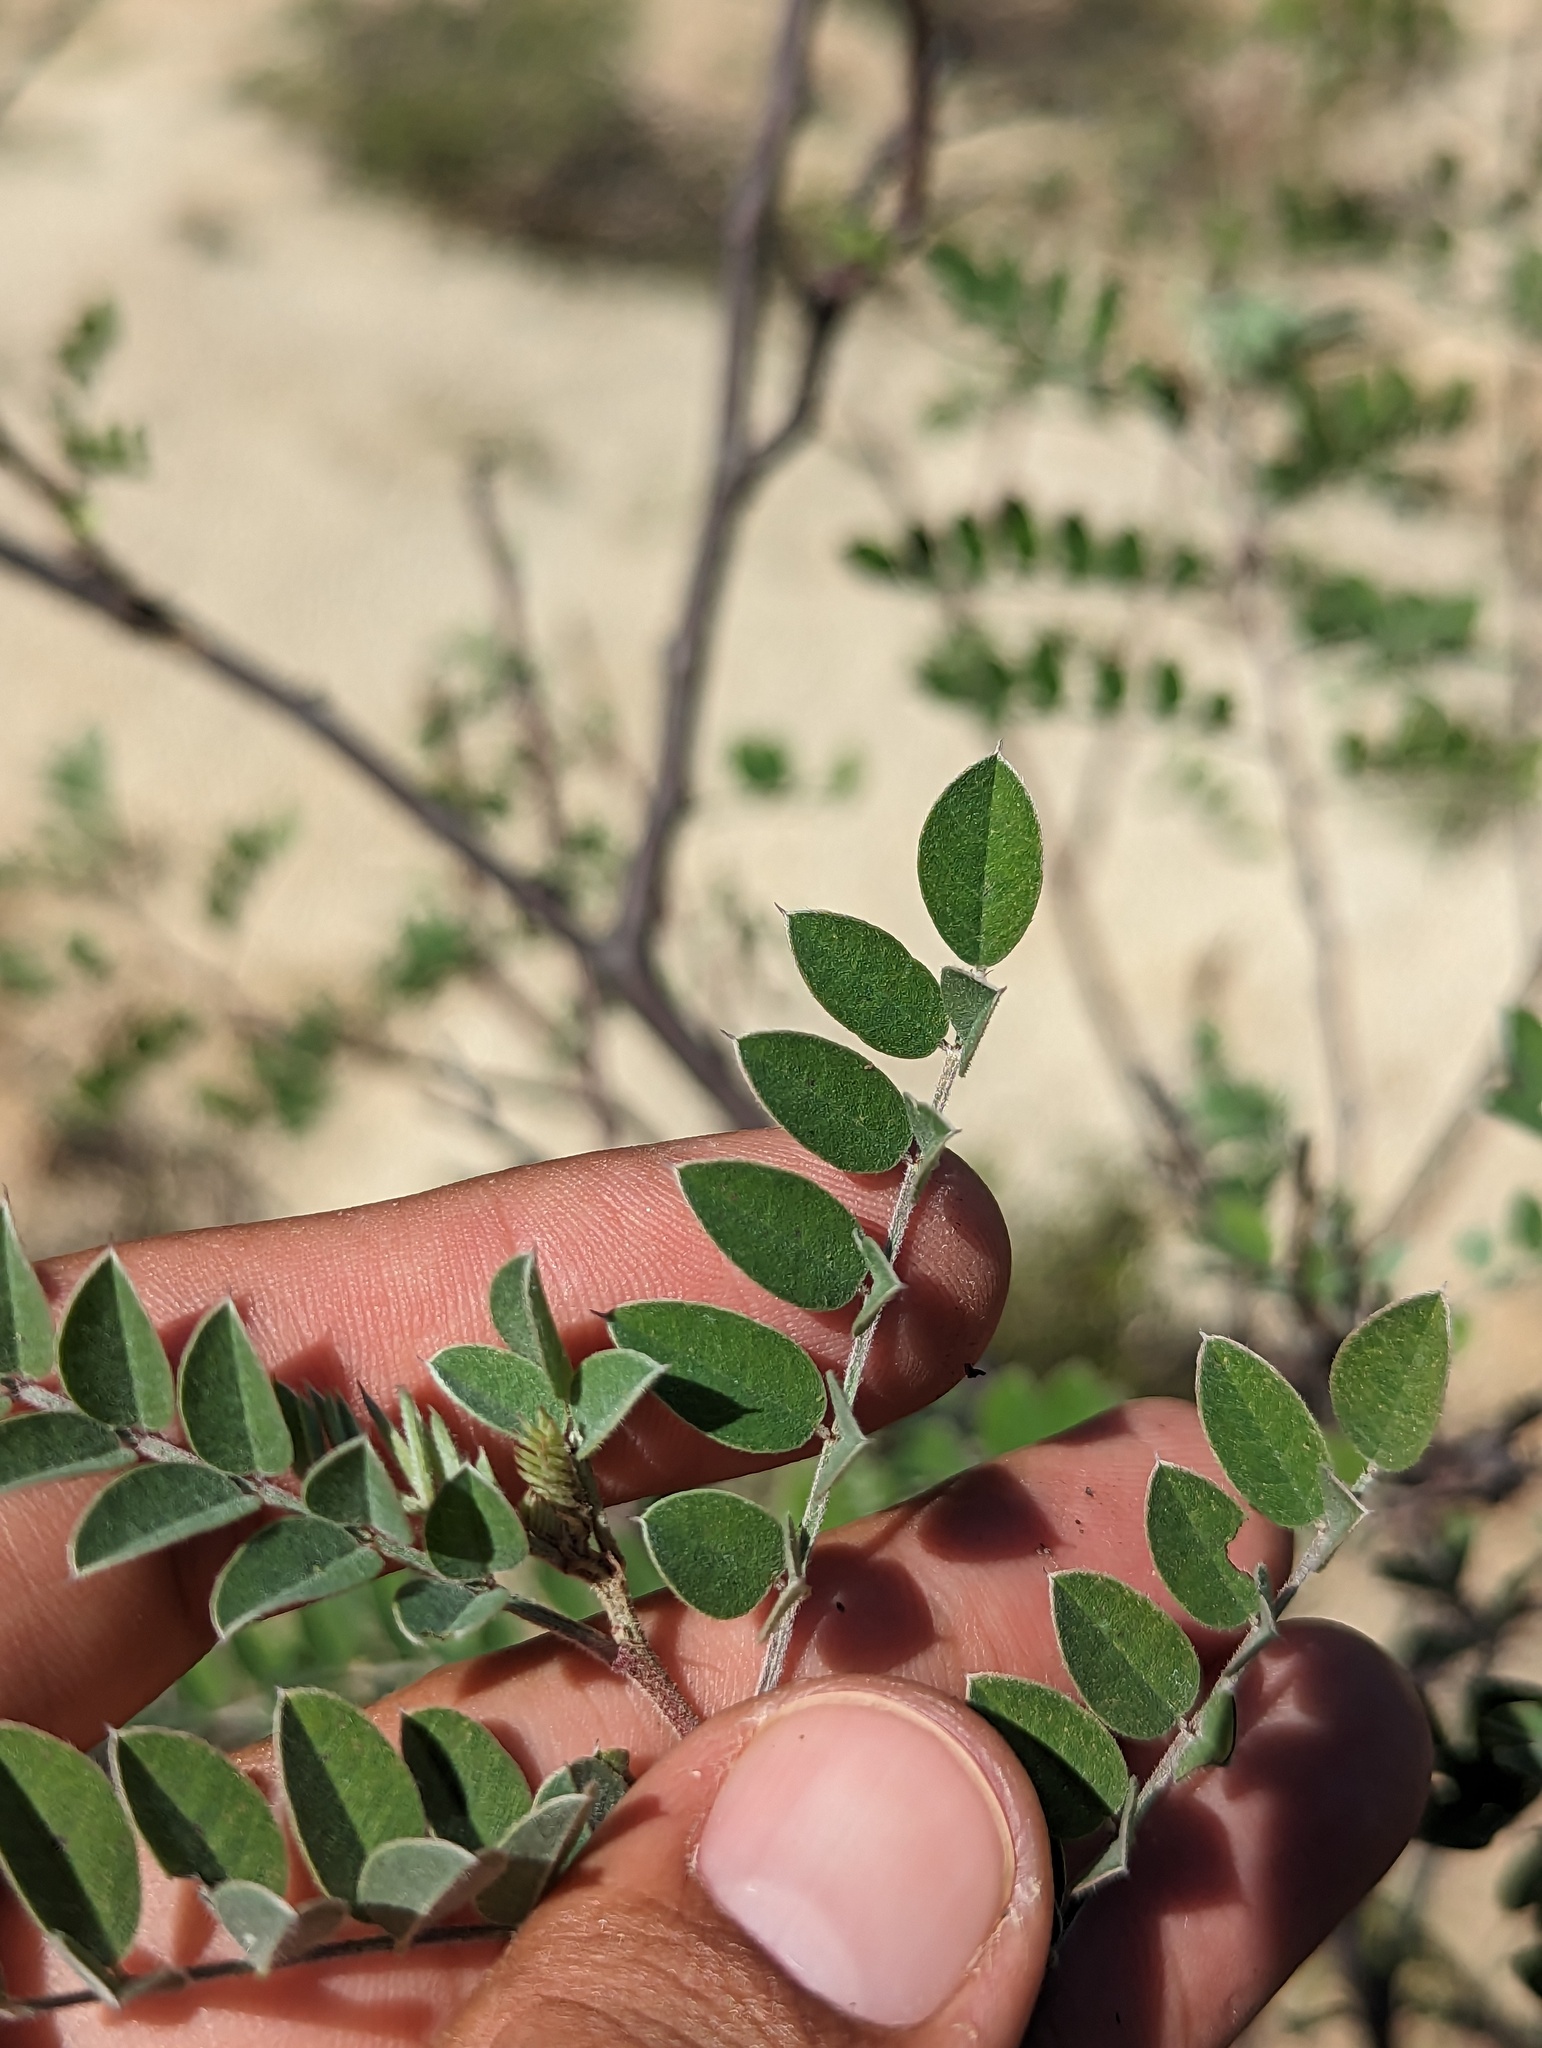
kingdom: Plantae
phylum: Tracheophyta
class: Magnoliopsida
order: Fabales
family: Fabaceae
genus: Indigofera
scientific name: Indigofera fruticosa
